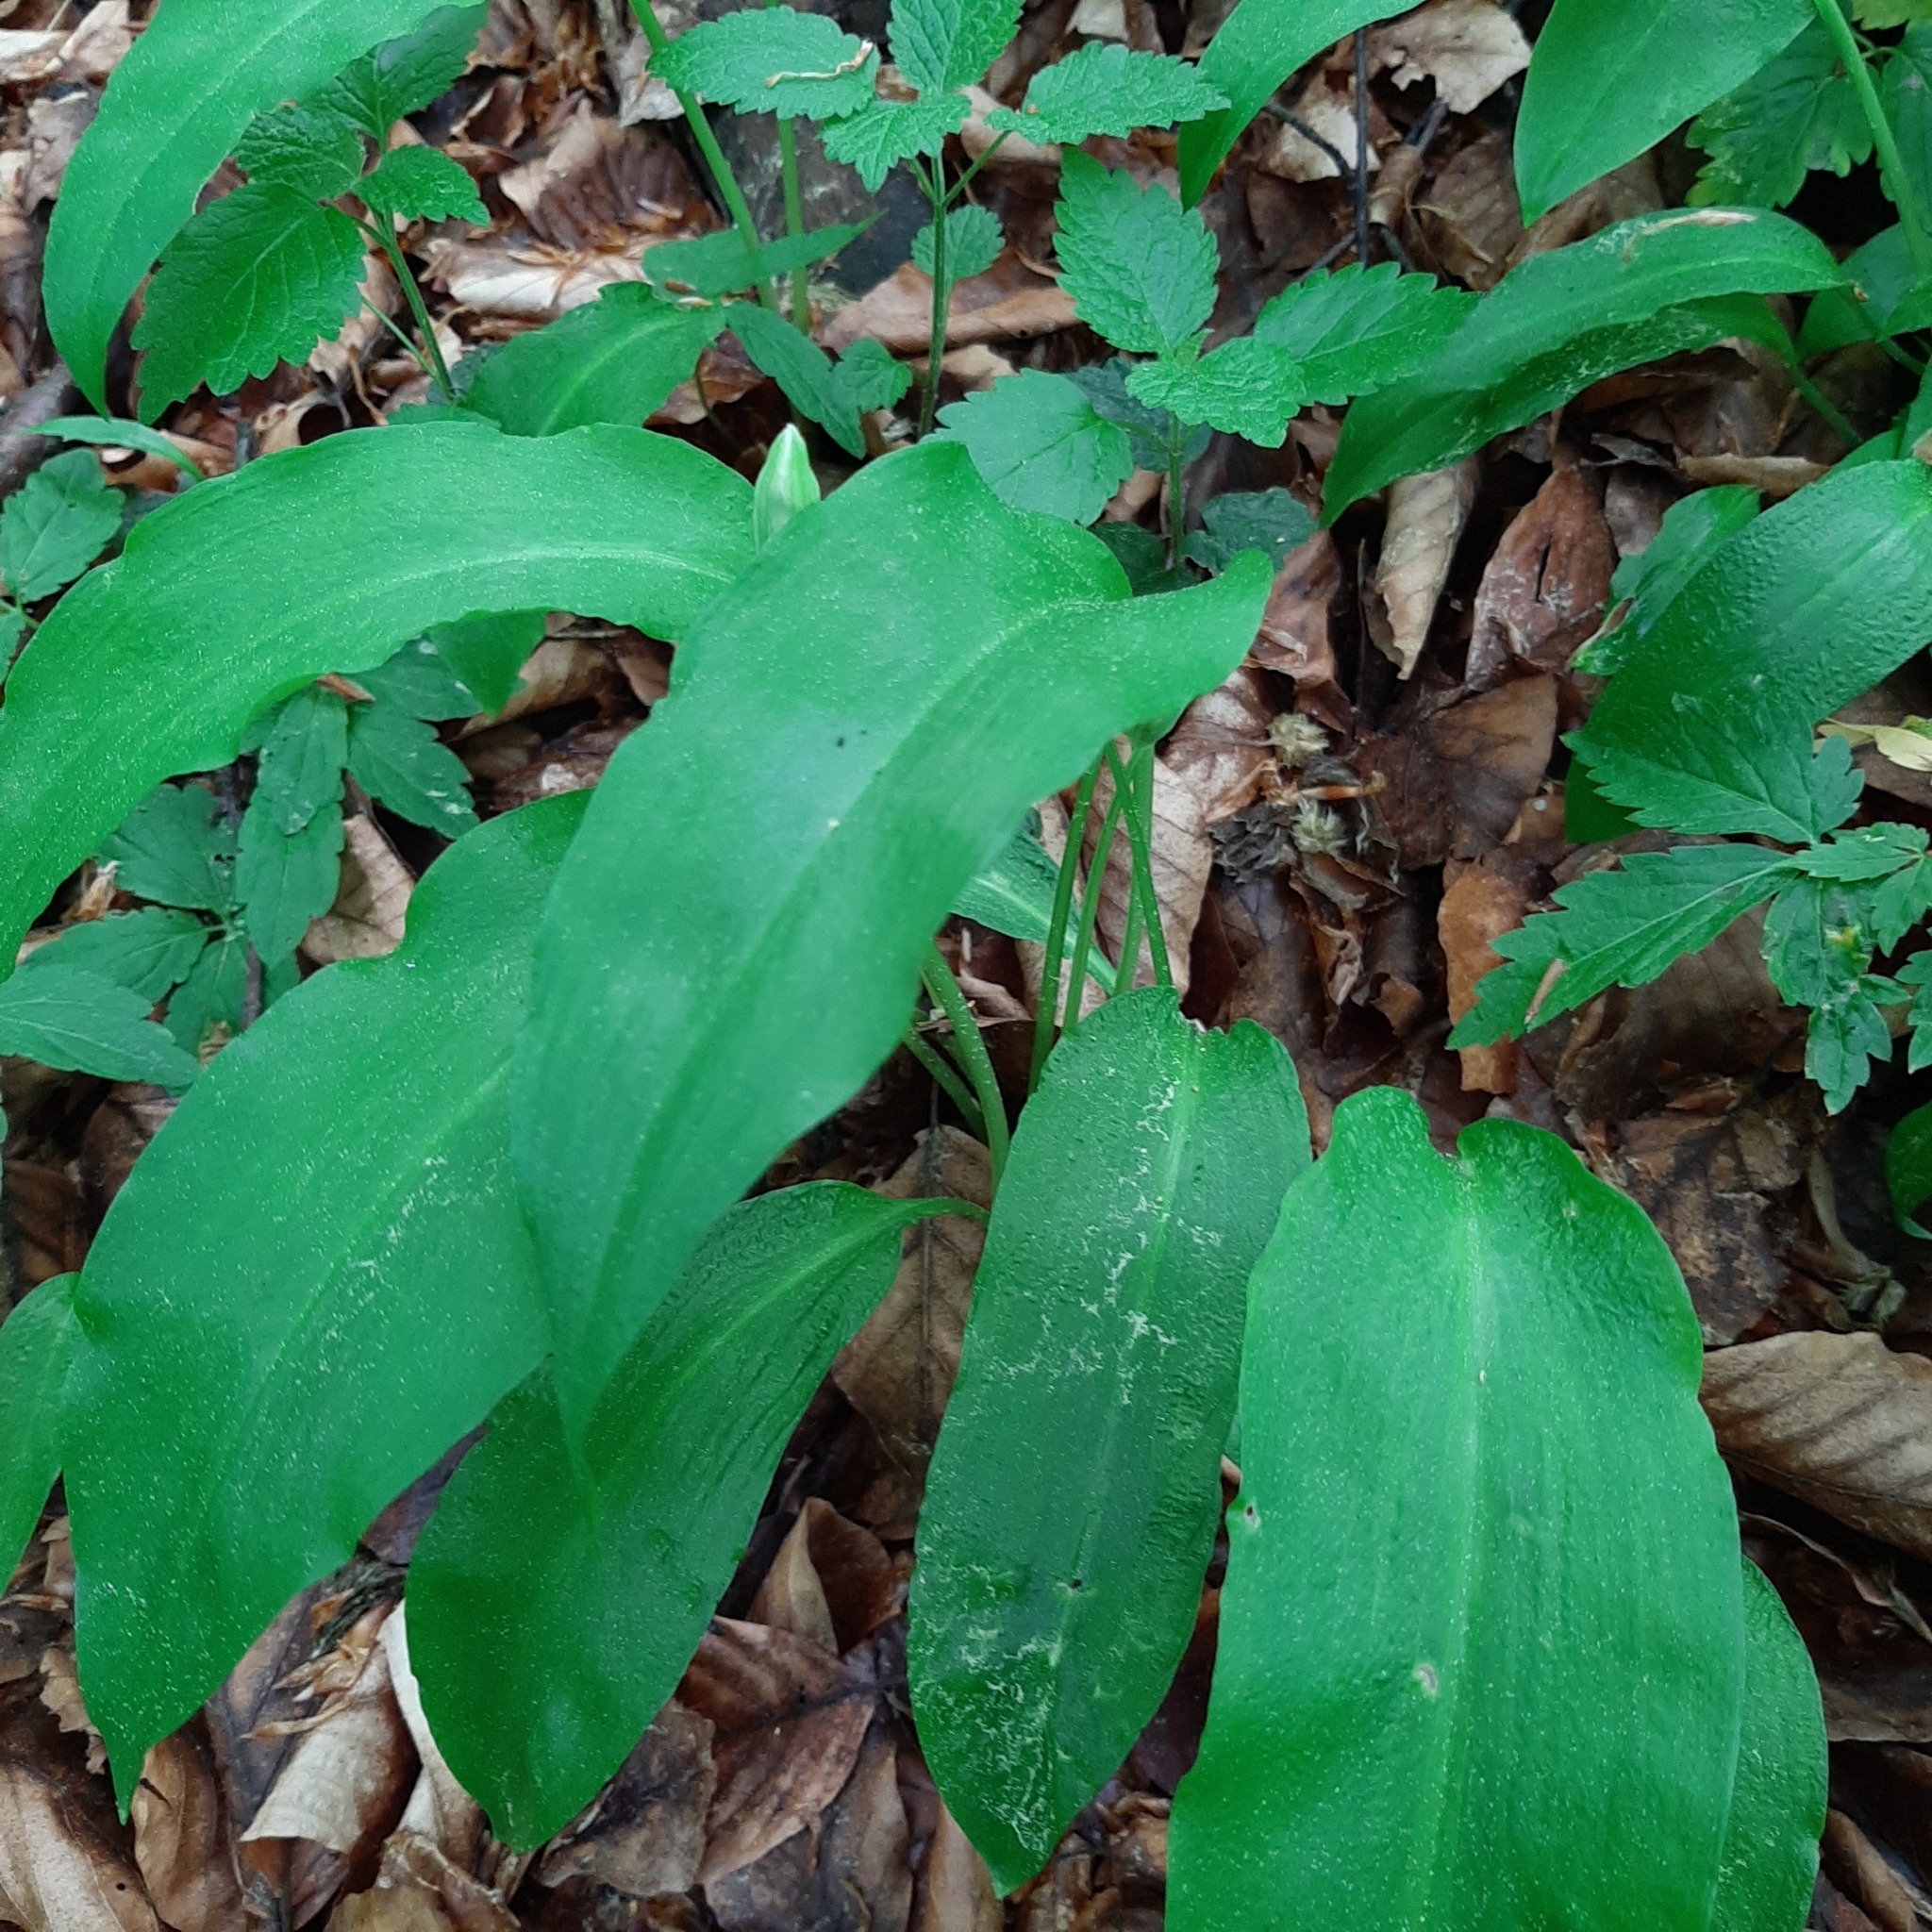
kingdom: Plantae
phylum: Tracheophyta
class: Liliopsida
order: Asparagales
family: Amaryllidaceae
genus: Allium
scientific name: Allium ursinum
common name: Ramsons
